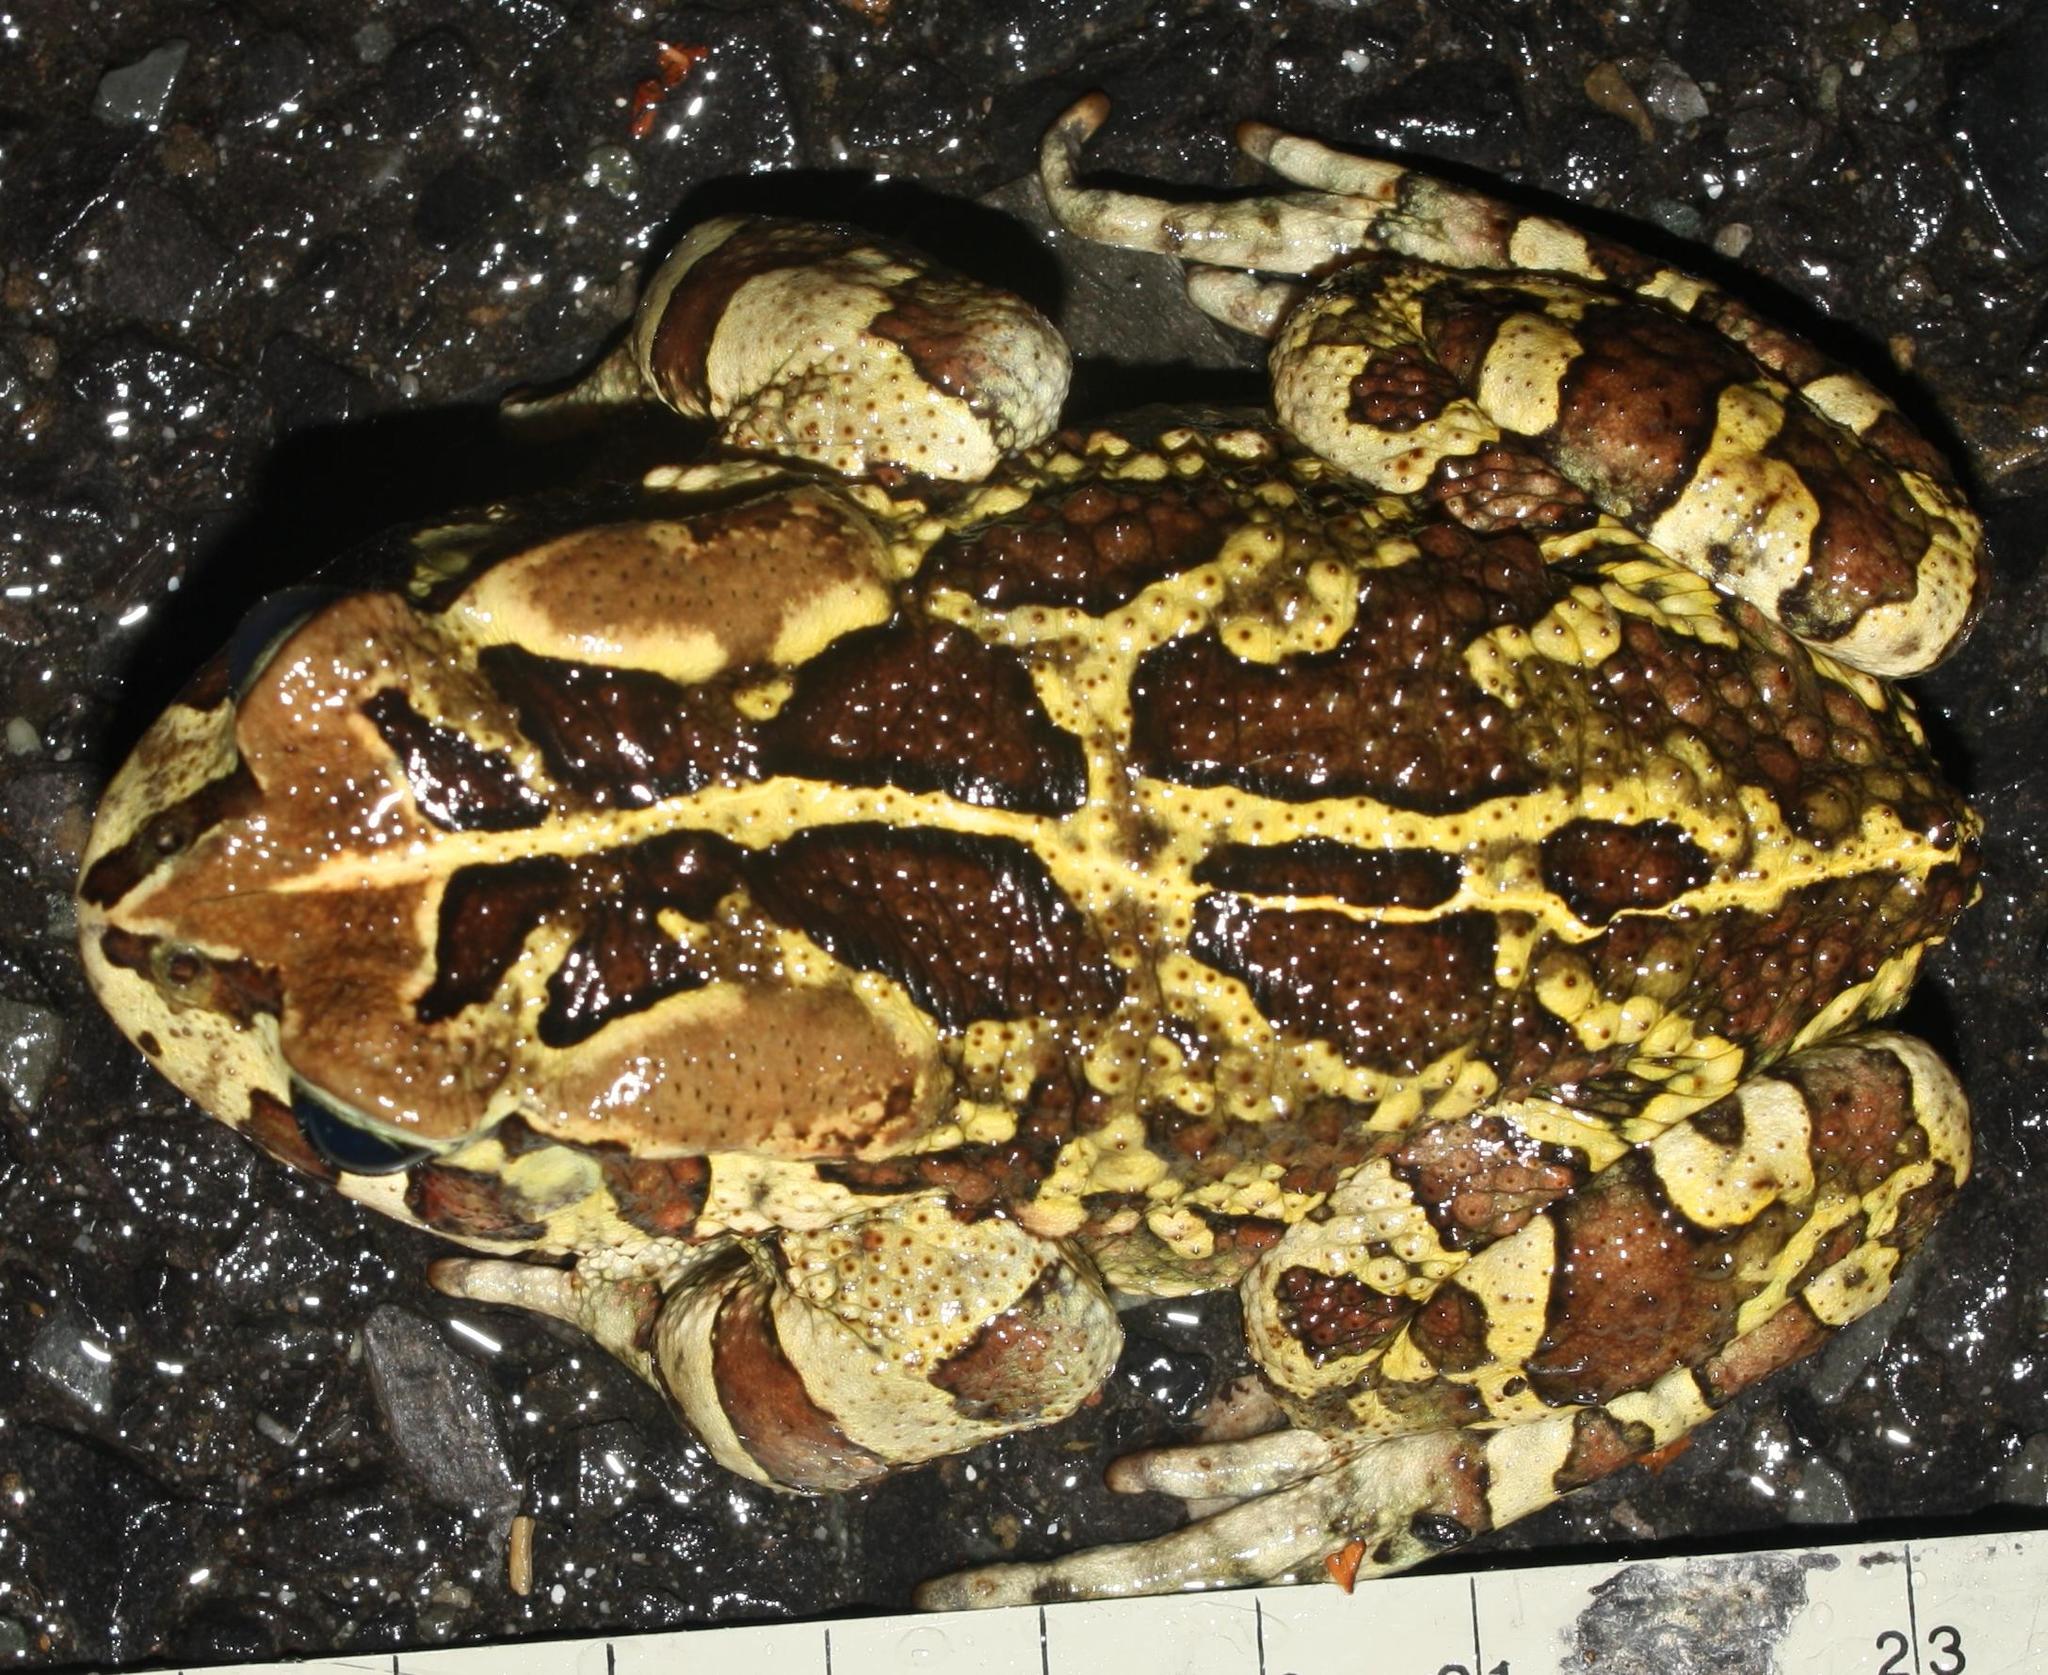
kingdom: Animalia
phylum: Chordata
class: Amphibia
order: Anura
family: Bufonidae
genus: Sclerophrys
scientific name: Sclerophrys pantherina
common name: Panther toad
